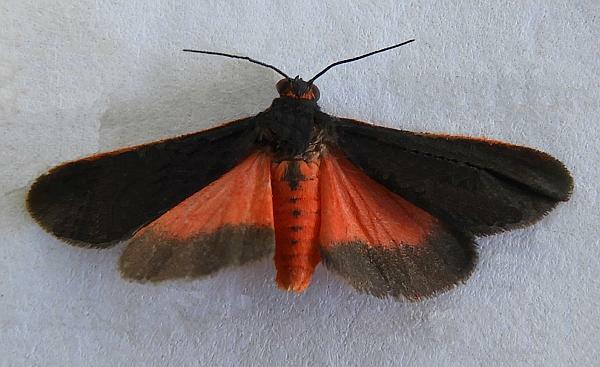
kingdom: Animalia
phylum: Arthropoda
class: Insecta
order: Lepidoptera
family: Erebidae
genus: Virbia
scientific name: Virbia laeta
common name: Joyful holomelina moth
